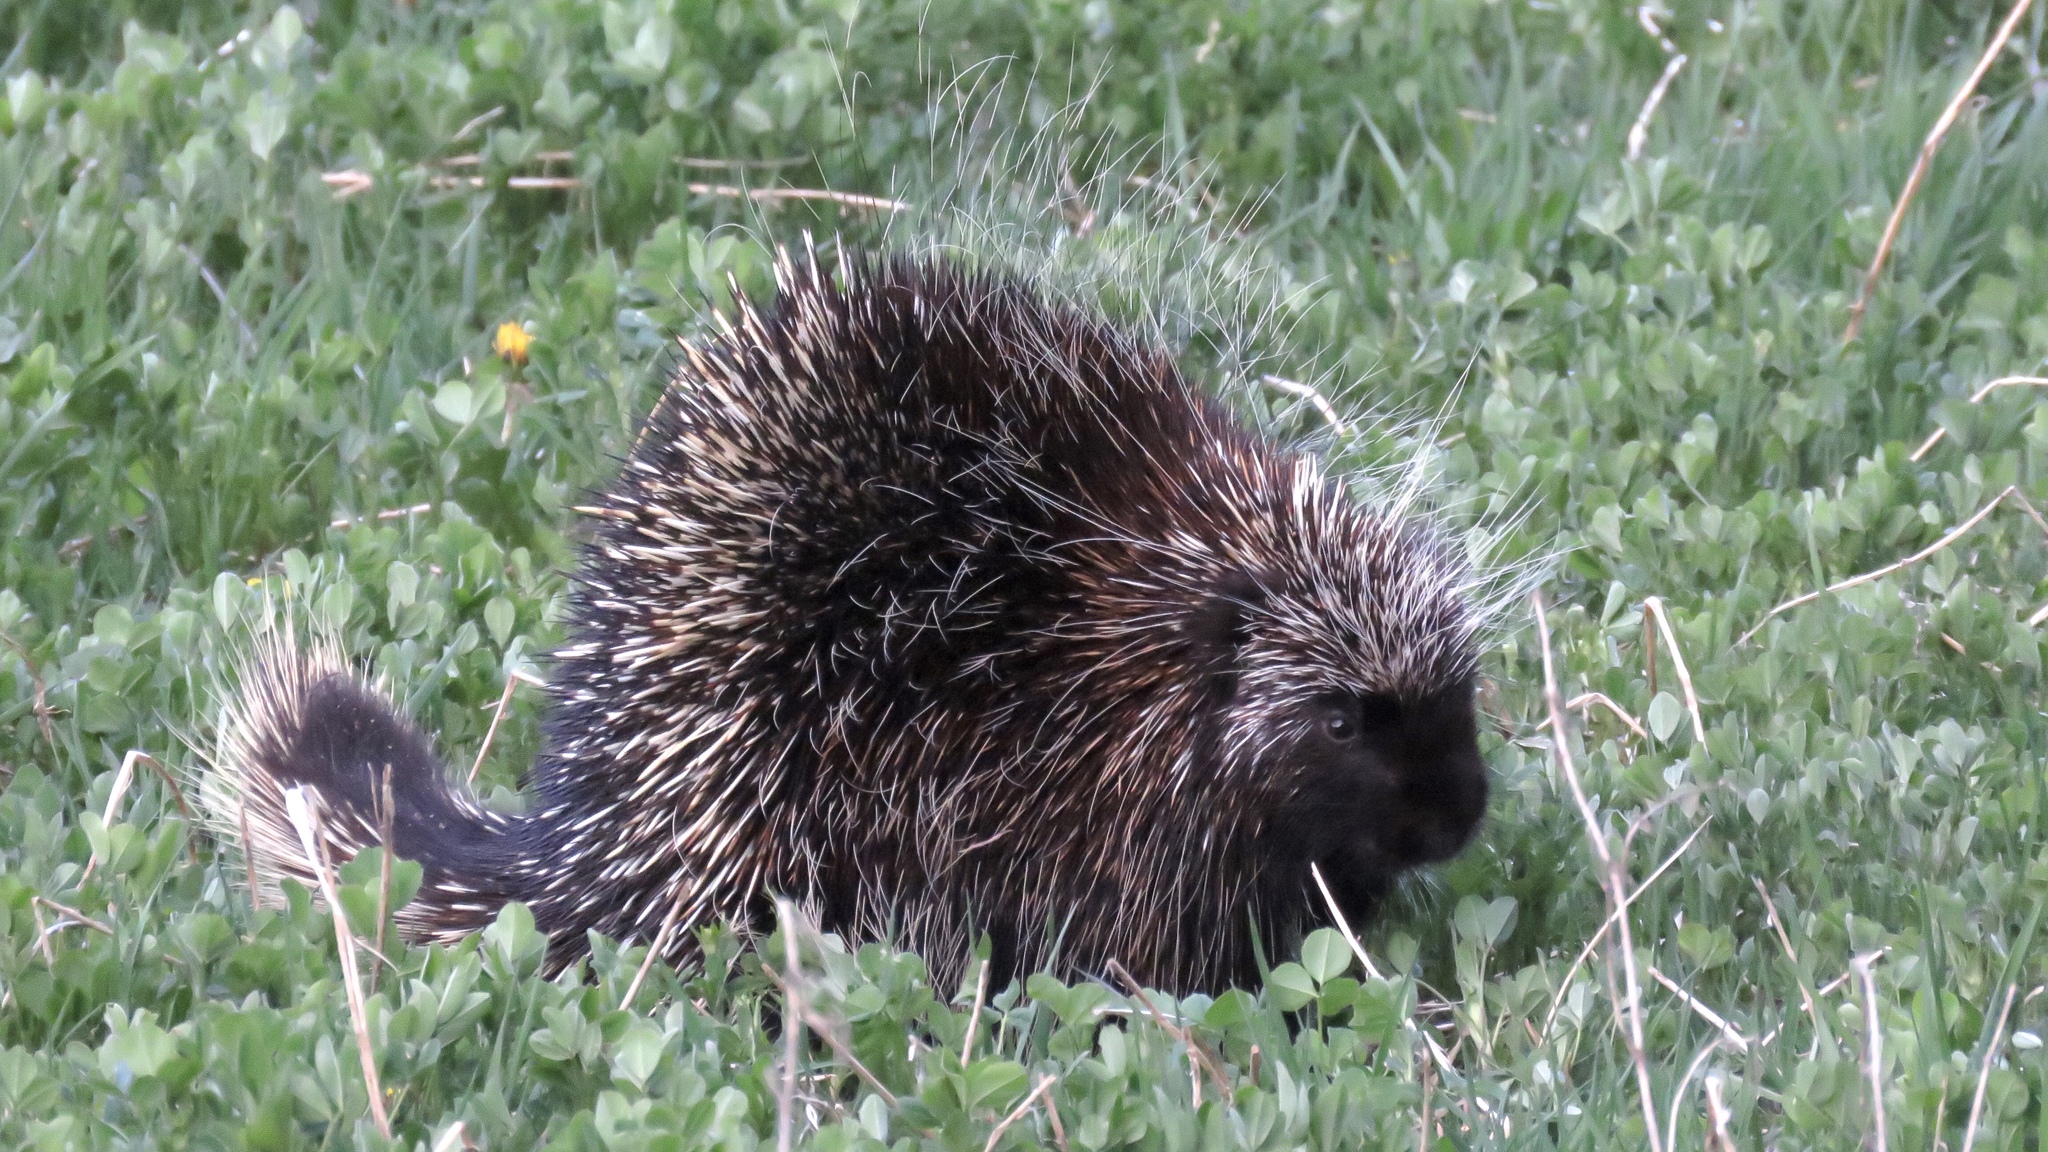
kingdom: Animalia
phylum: Chordata
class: Mammalia
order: Rodentia
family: Erethizontidae
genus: Erethizon
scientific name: Erethizon dorsatus
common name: North american porcupine
